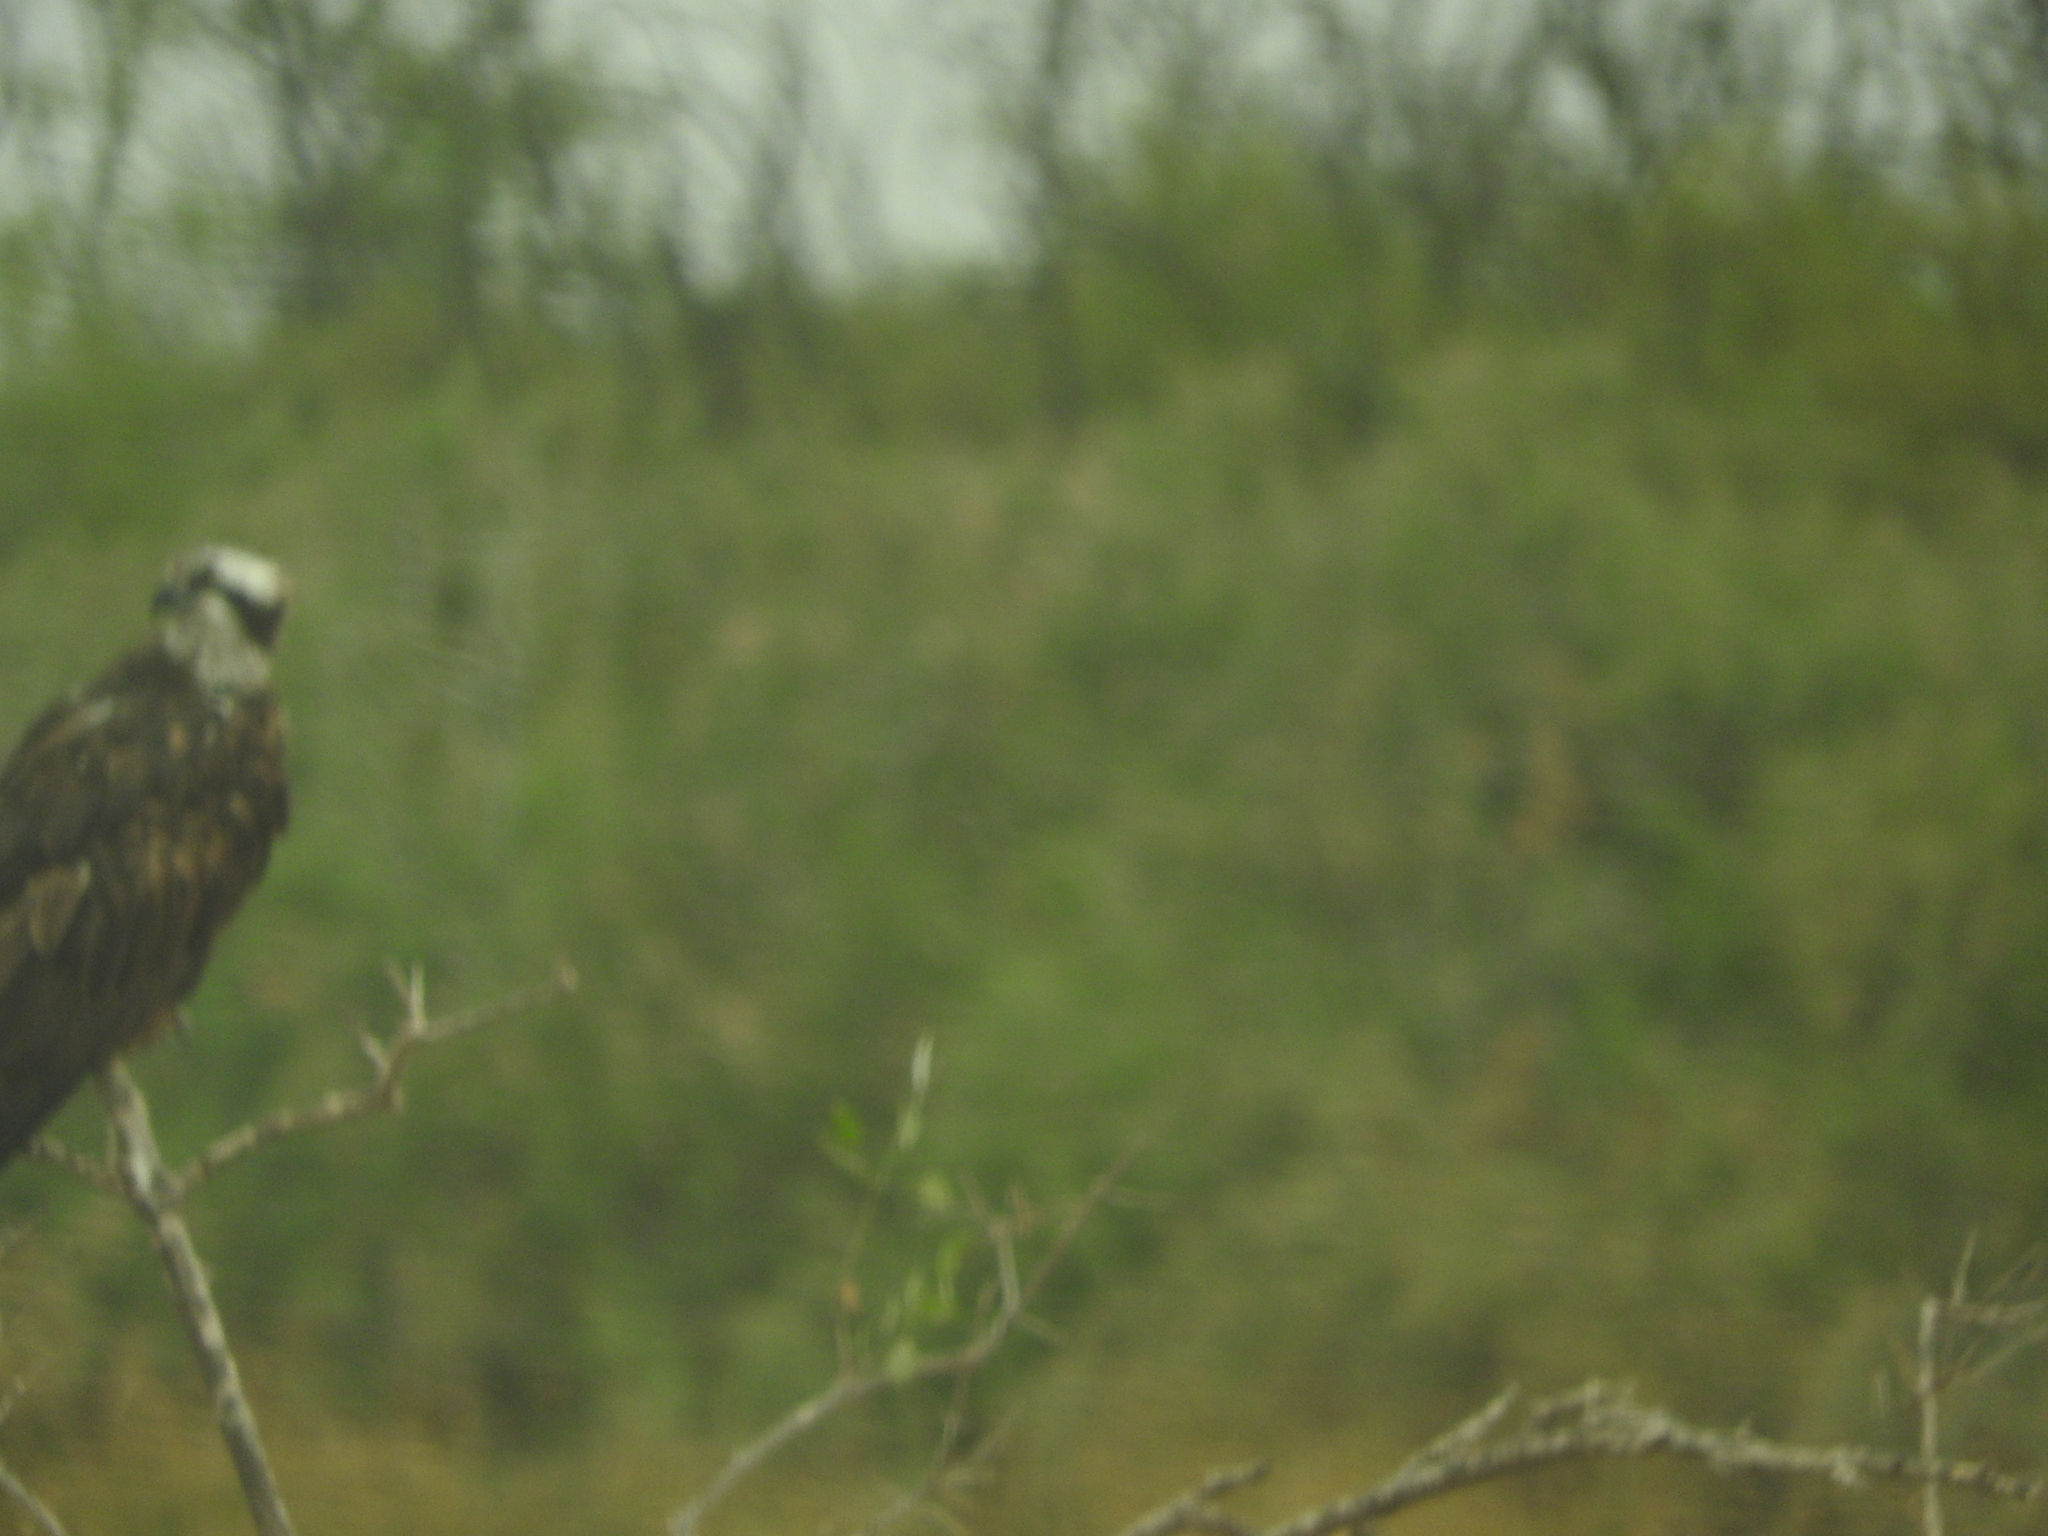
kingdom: Animalia
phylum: Chordata
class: Aves
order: Accipitriformes
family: Pandionidae
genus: Pandion
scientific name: Pandion haliaetus
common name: Osprey
